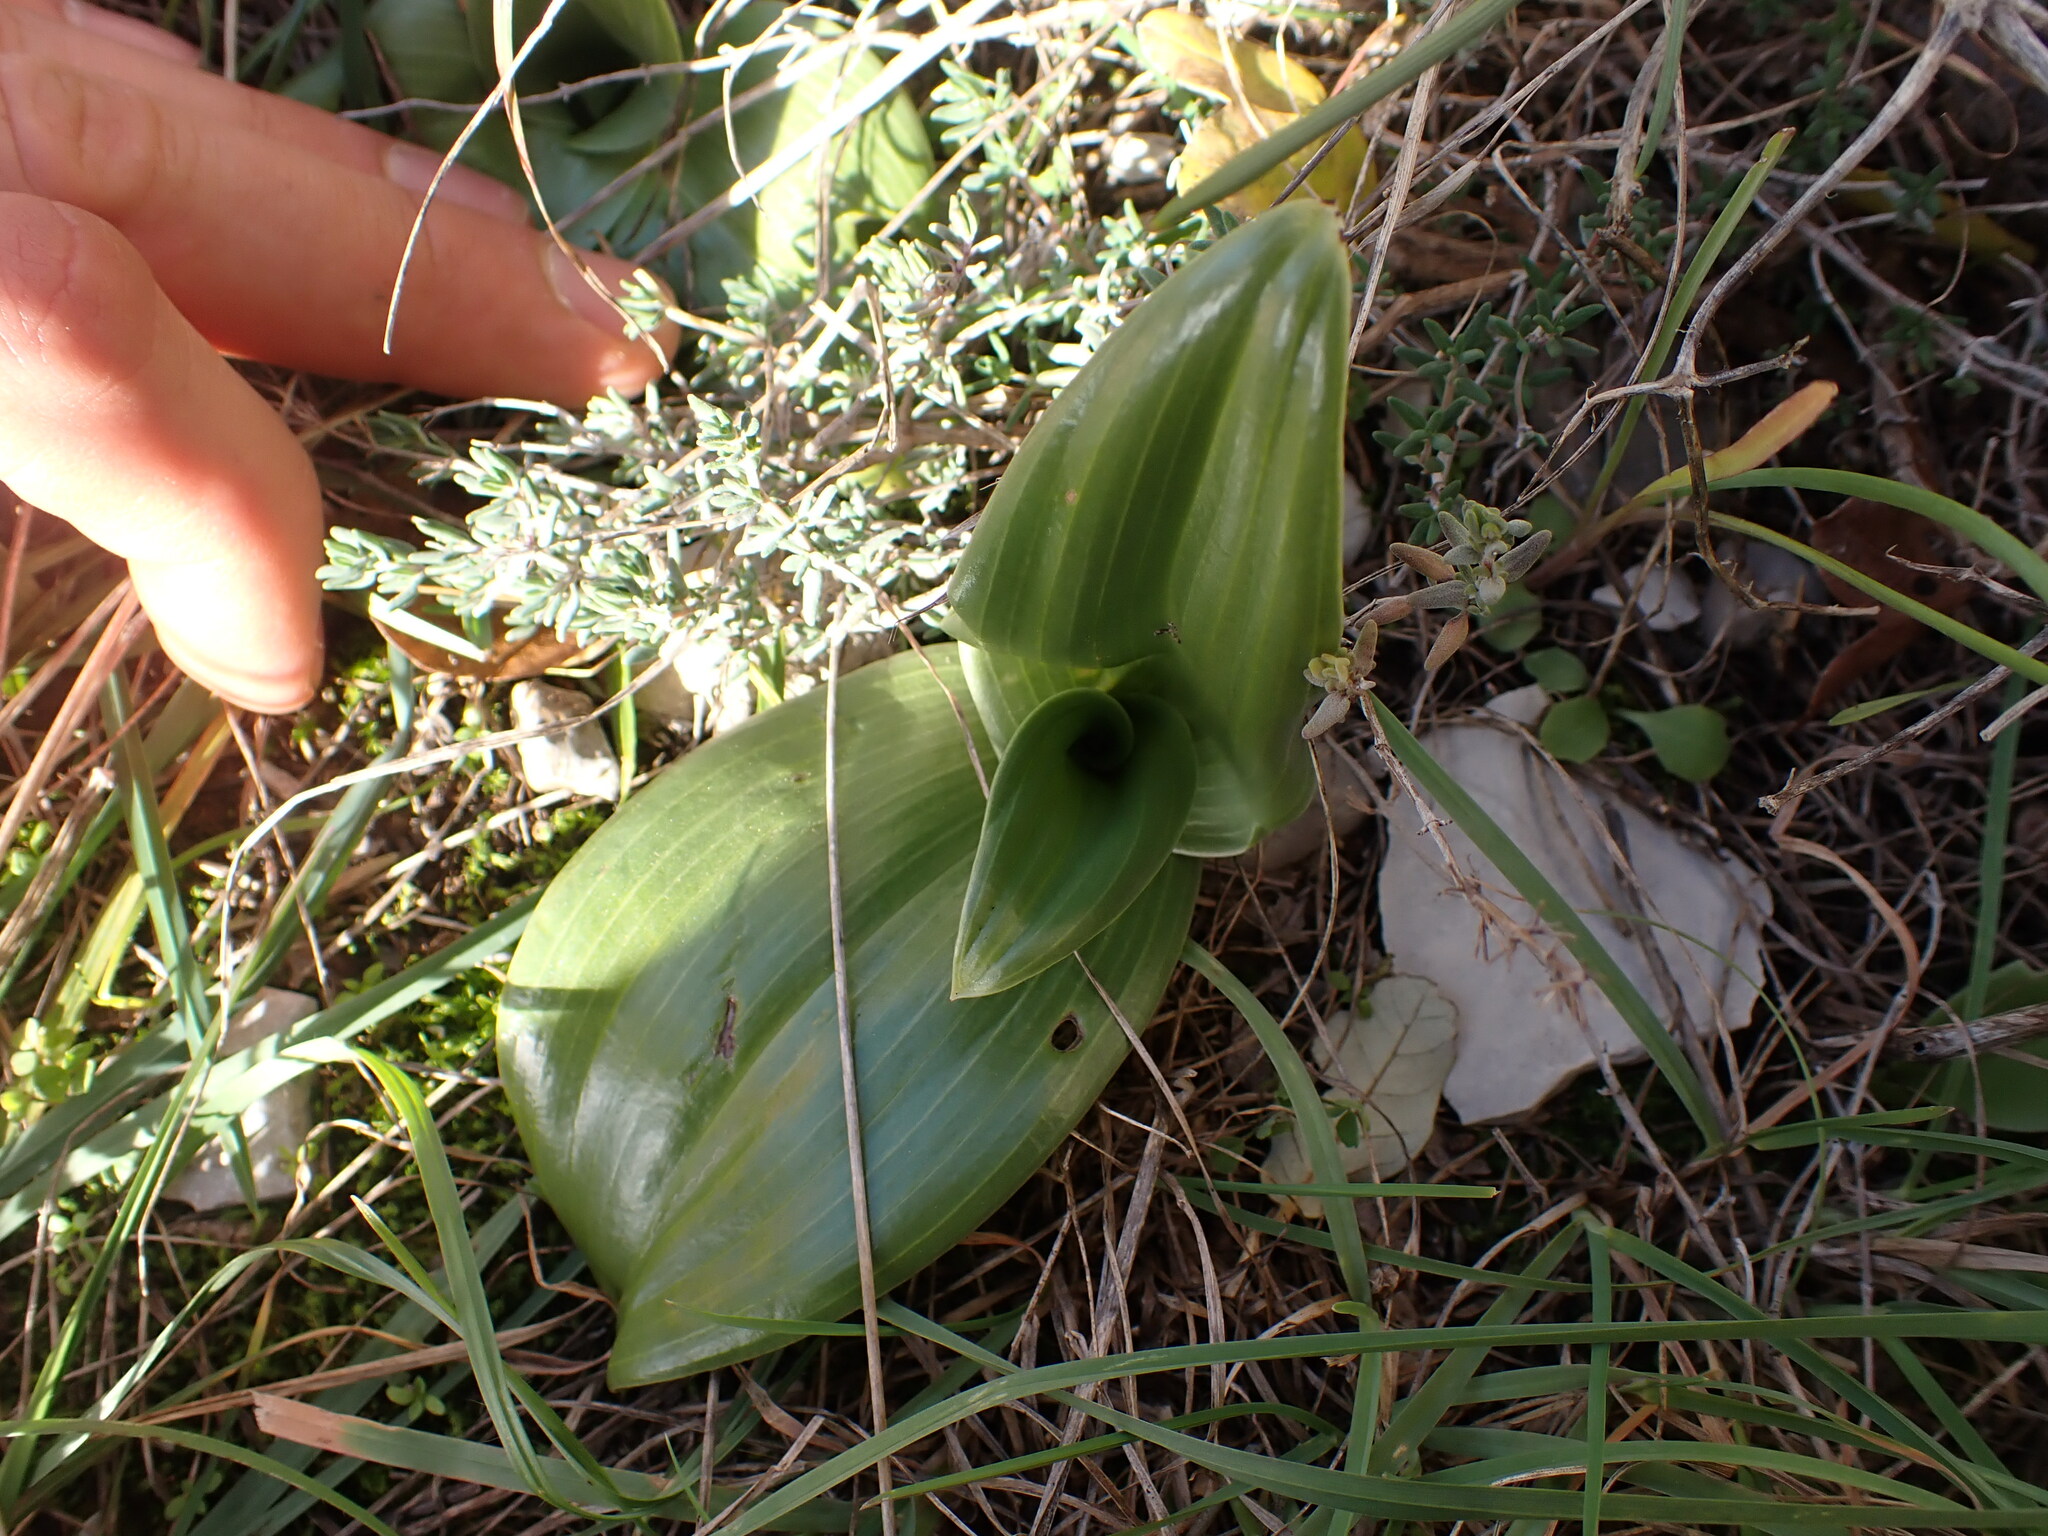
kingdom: Plantae
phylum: Tracheophyta
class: Liliopsida
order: Asparagales
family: Orchidaceae
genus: Himantoglossum
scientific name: Himantoglossum robertianum
